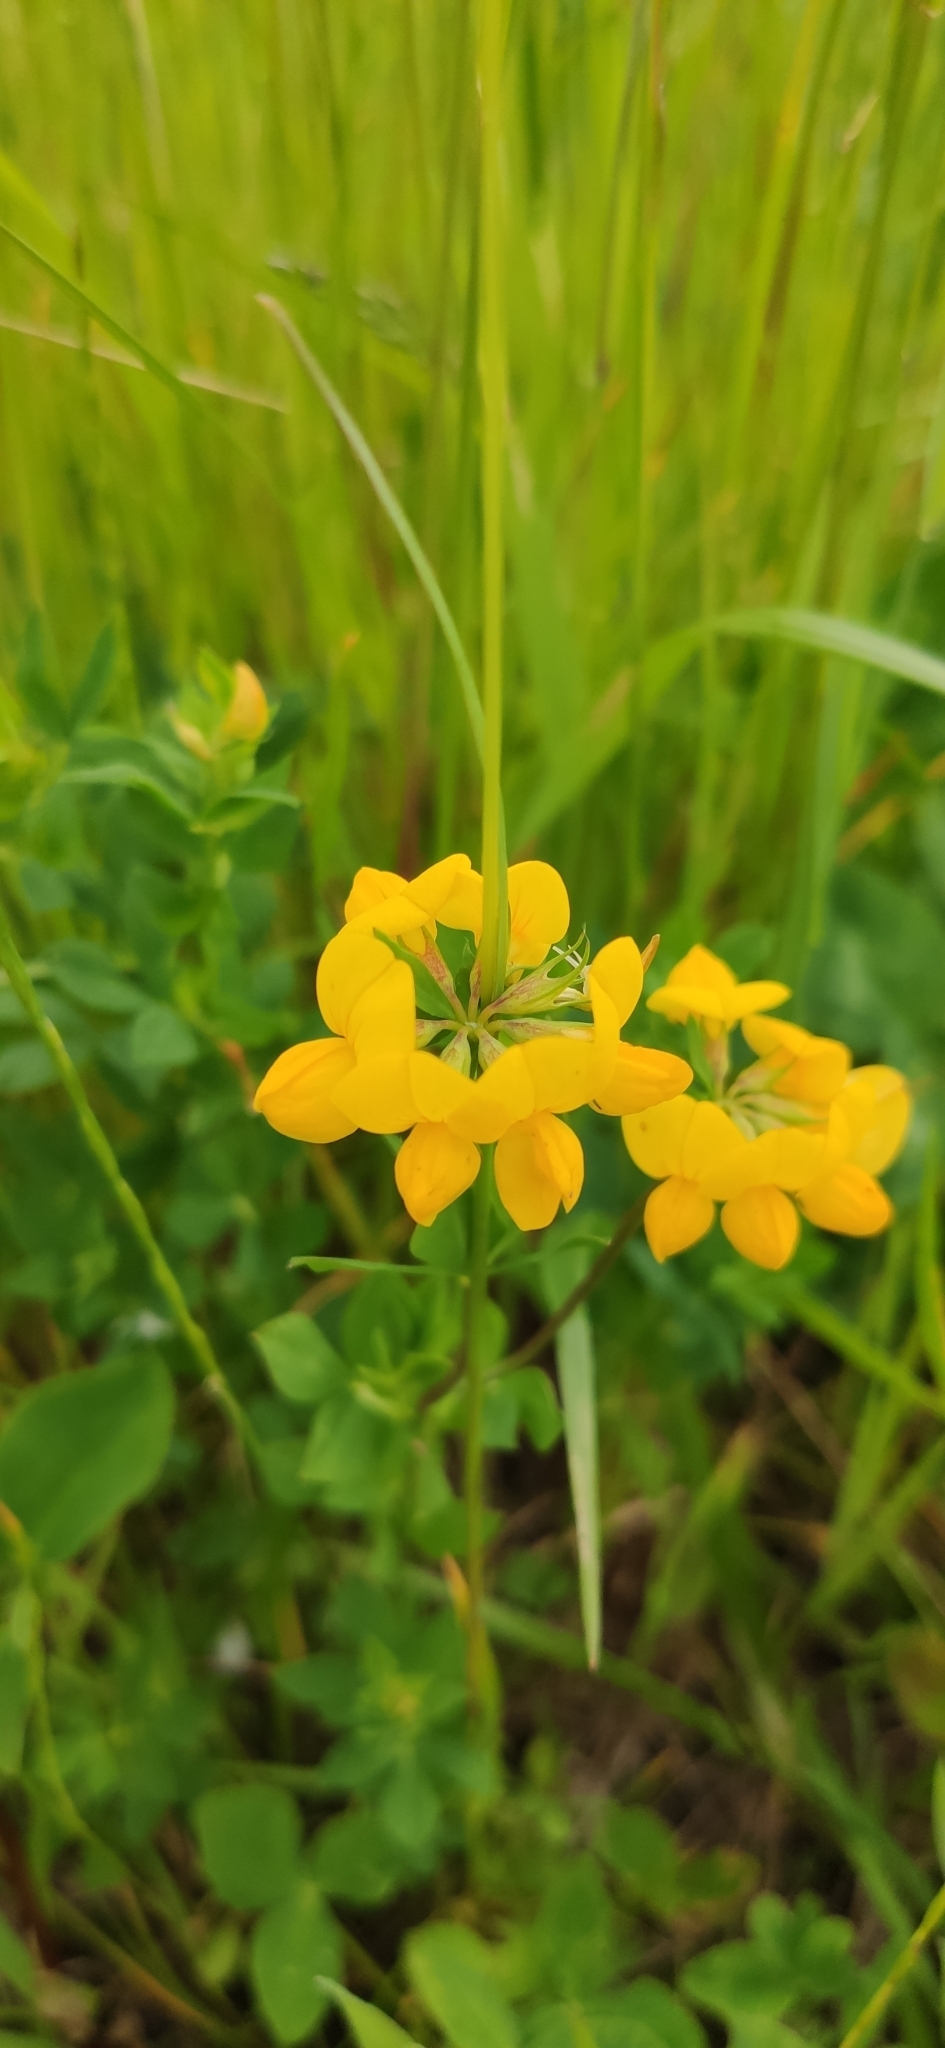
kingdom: Plantae
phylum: Tracheophyta
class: Magnoliopsida
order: Fabales
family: Fabaceae
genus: Lotus
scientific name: Lotus corniculatus
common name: Common bird's-foot-trefoil
